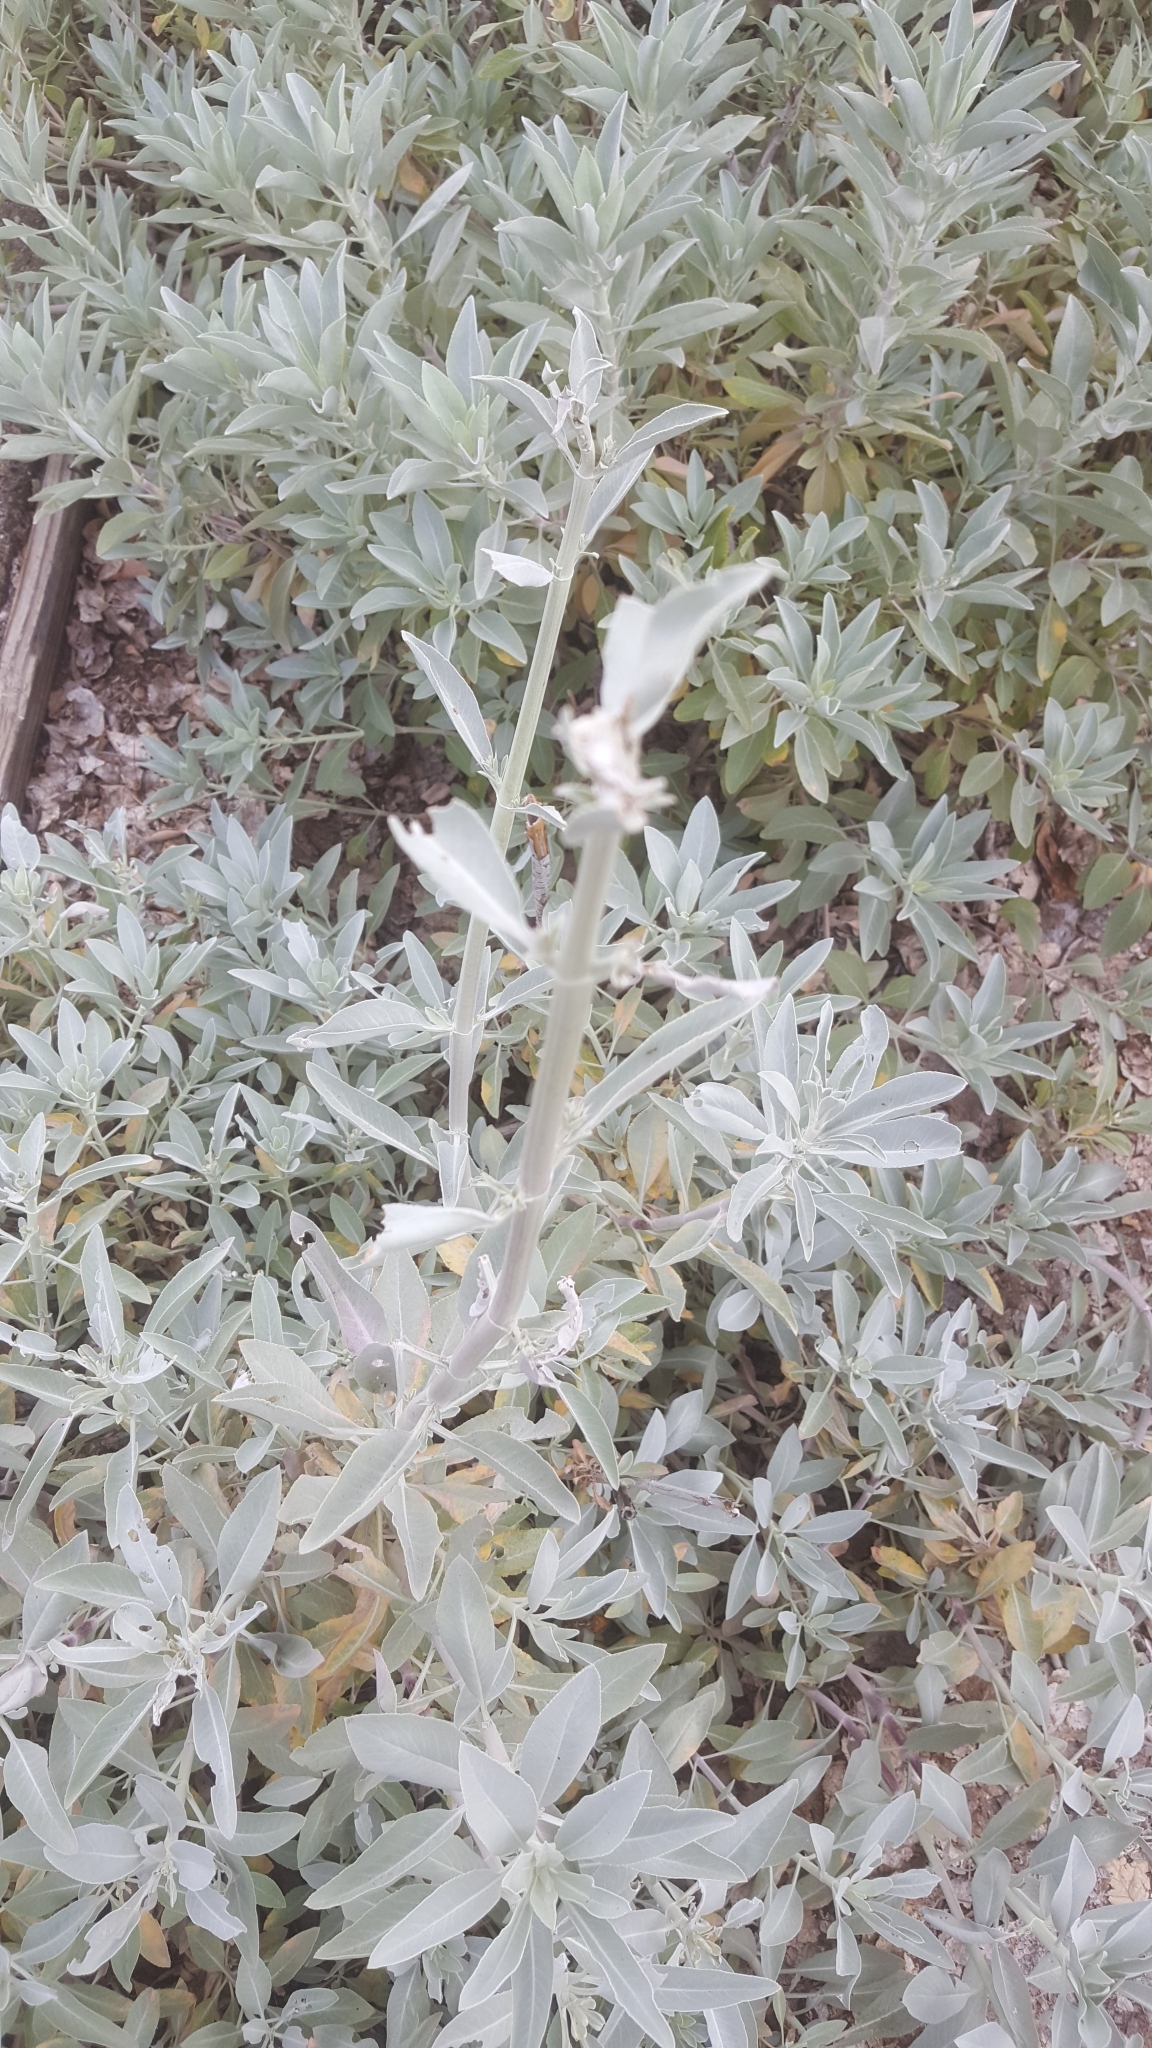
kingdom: Plantae
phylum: Tracheophyta
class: Magnoliopsida
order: Lamiales
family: Lamiaceae
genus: Salvia
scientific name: Salvia apiana
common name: White sage
